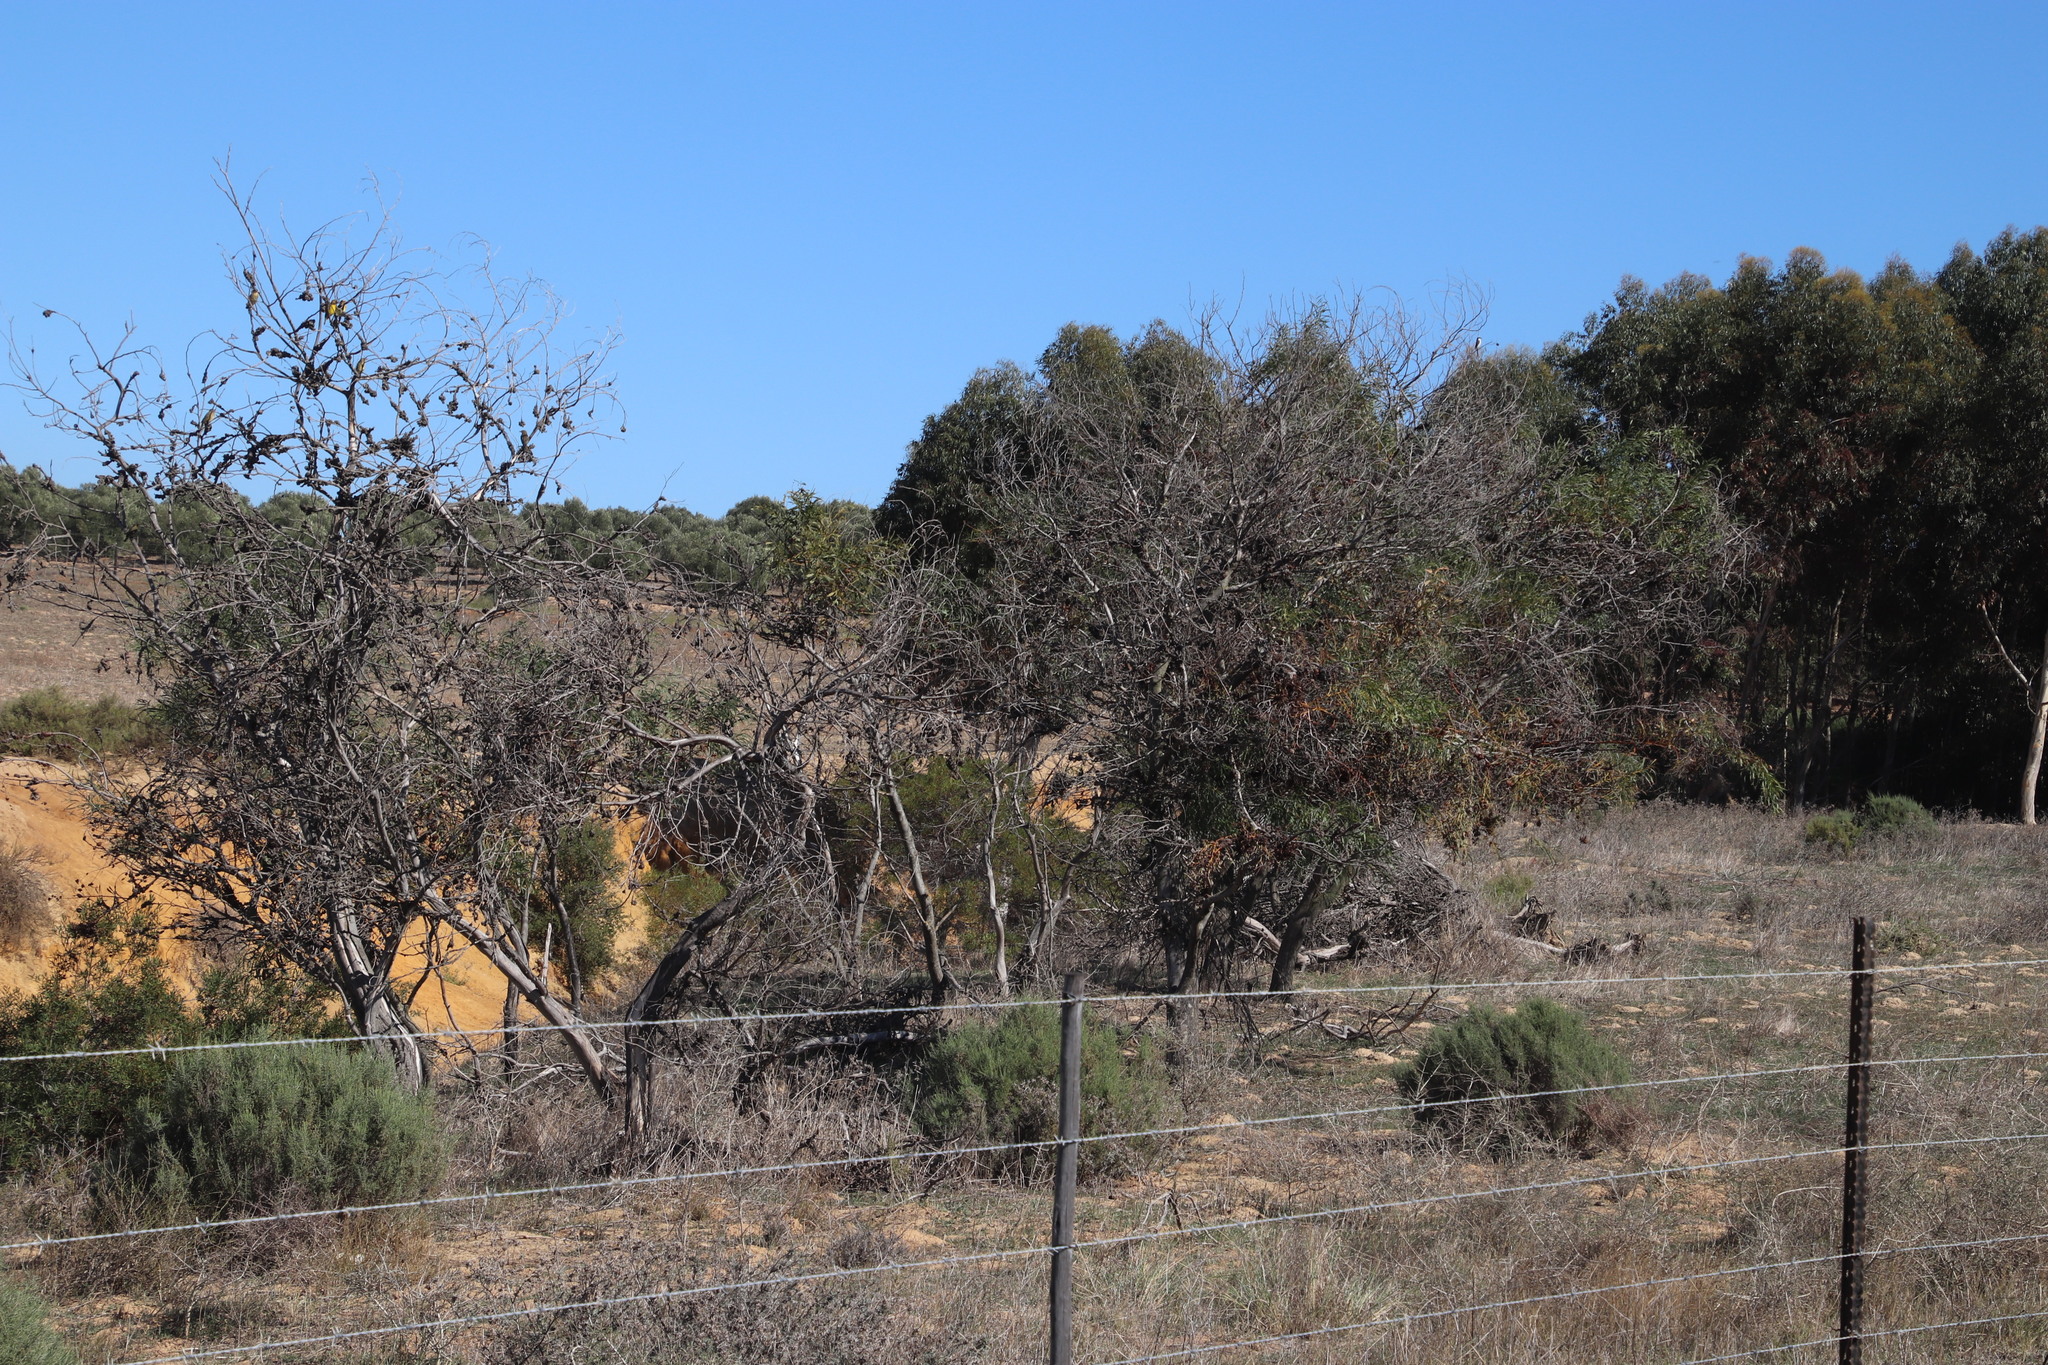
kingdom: Plantae
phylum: Tracheophyta
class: Magnoliopsida
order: Fabales
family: Fabaceae
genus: Acacia
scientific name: Acacia saligna
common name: Orange wattle
